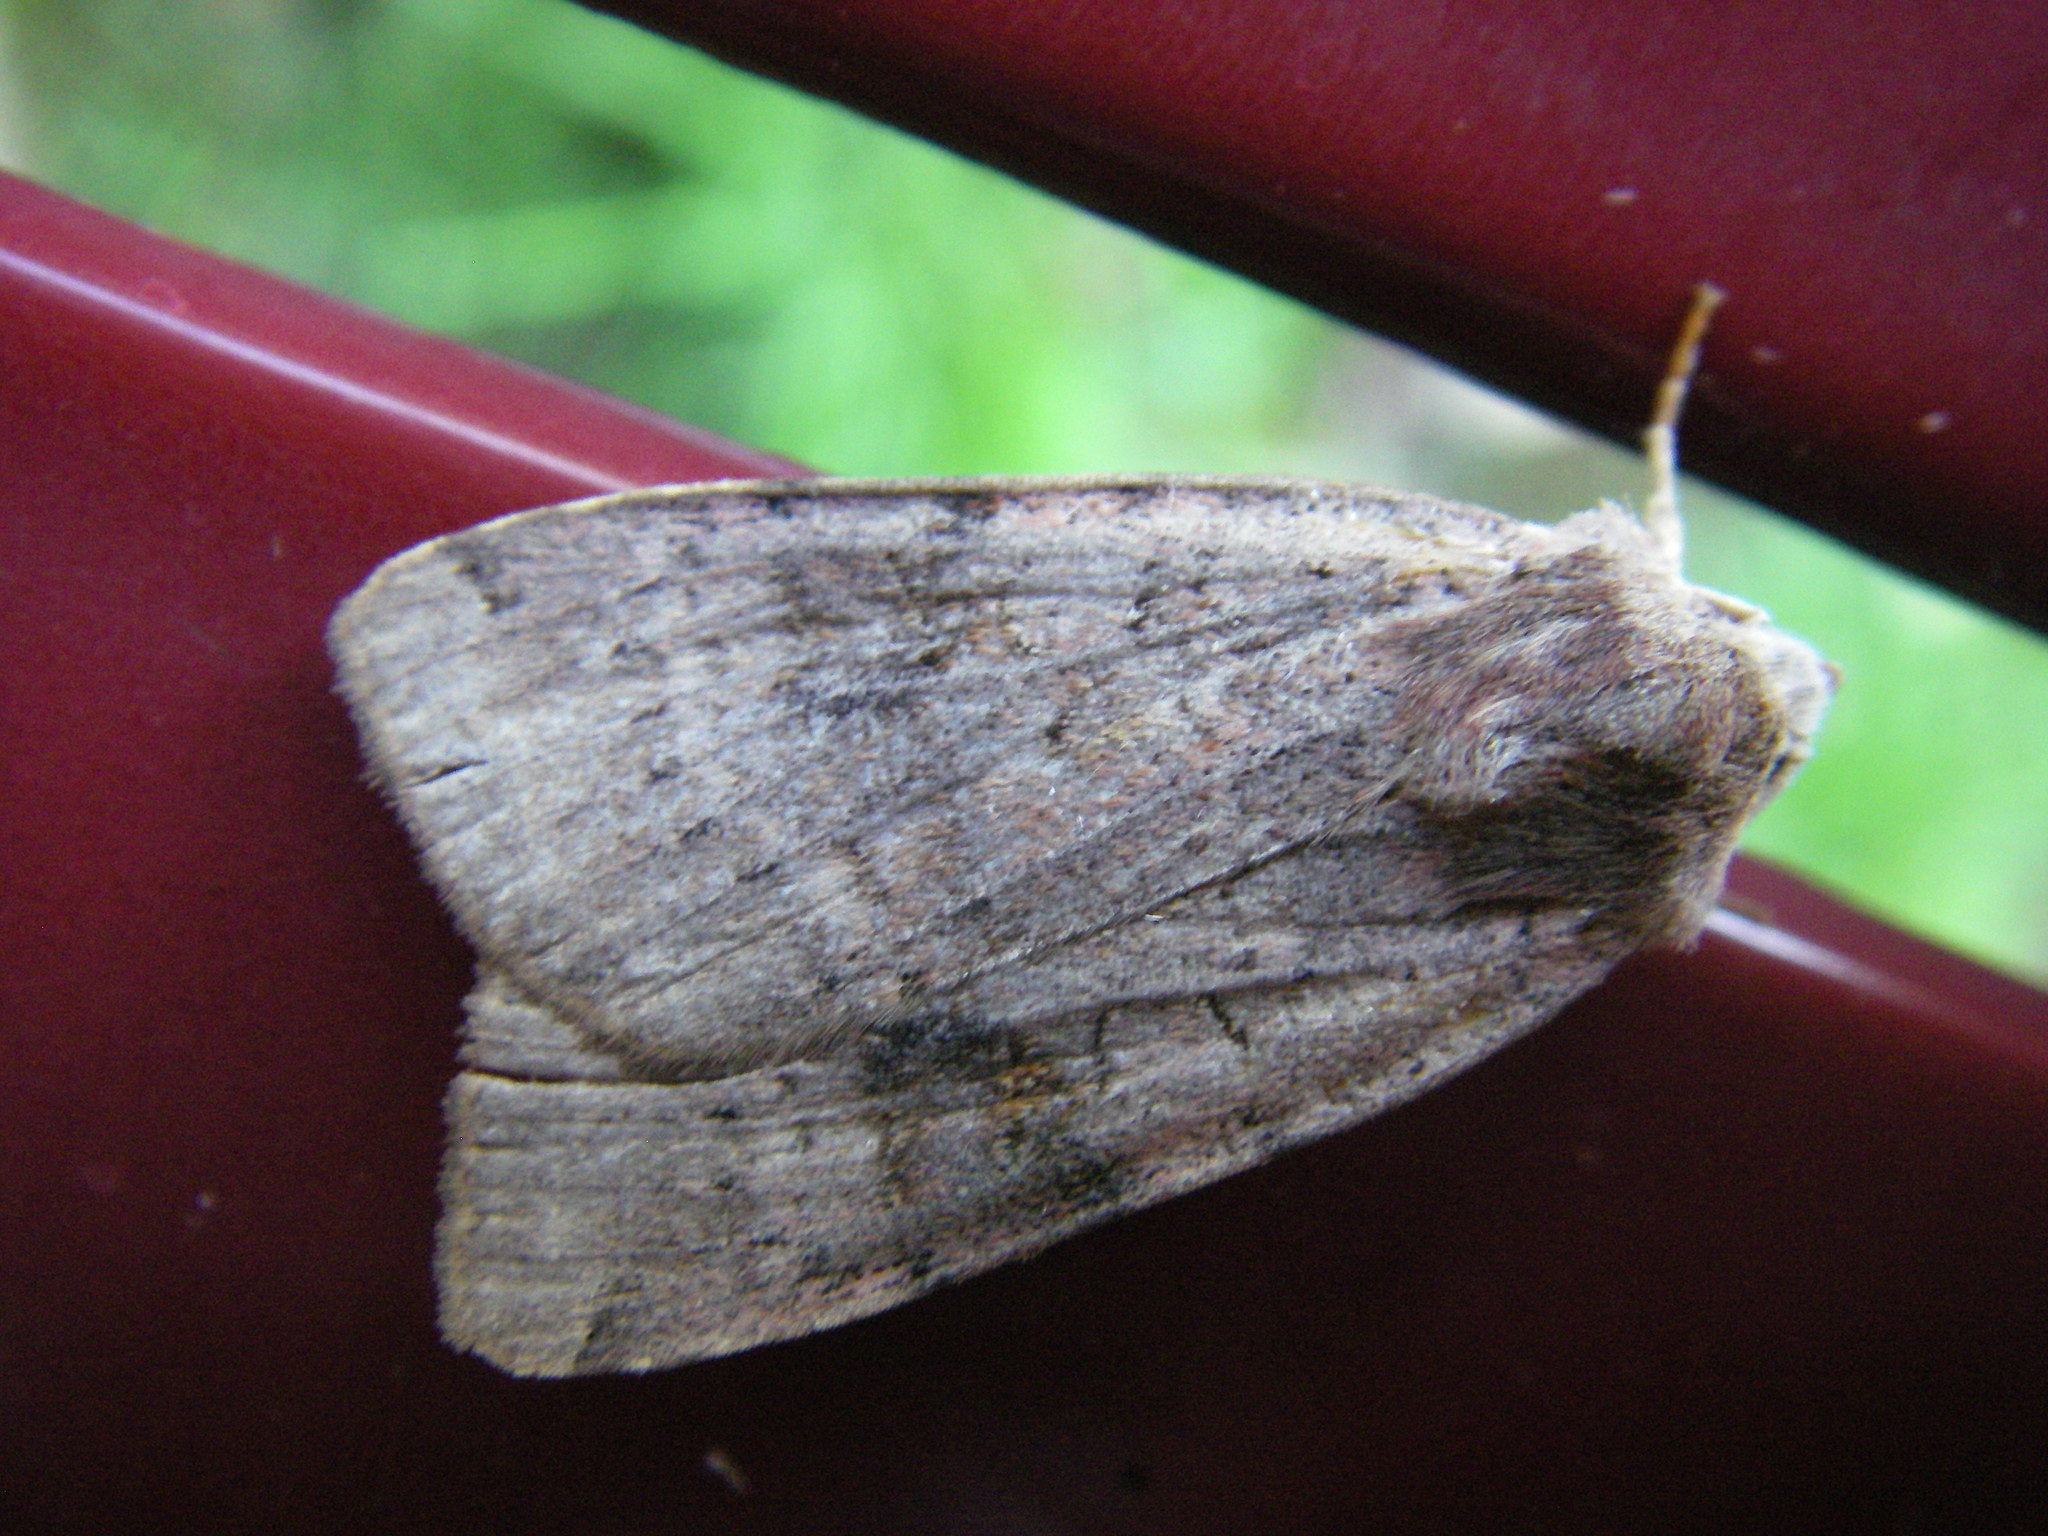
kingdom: Animalia
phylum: Arthropoda
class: Insecta
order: Lepidoptera
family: Noctuidae
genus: Xestia
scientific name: Xestia baja
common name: Dotted clay
